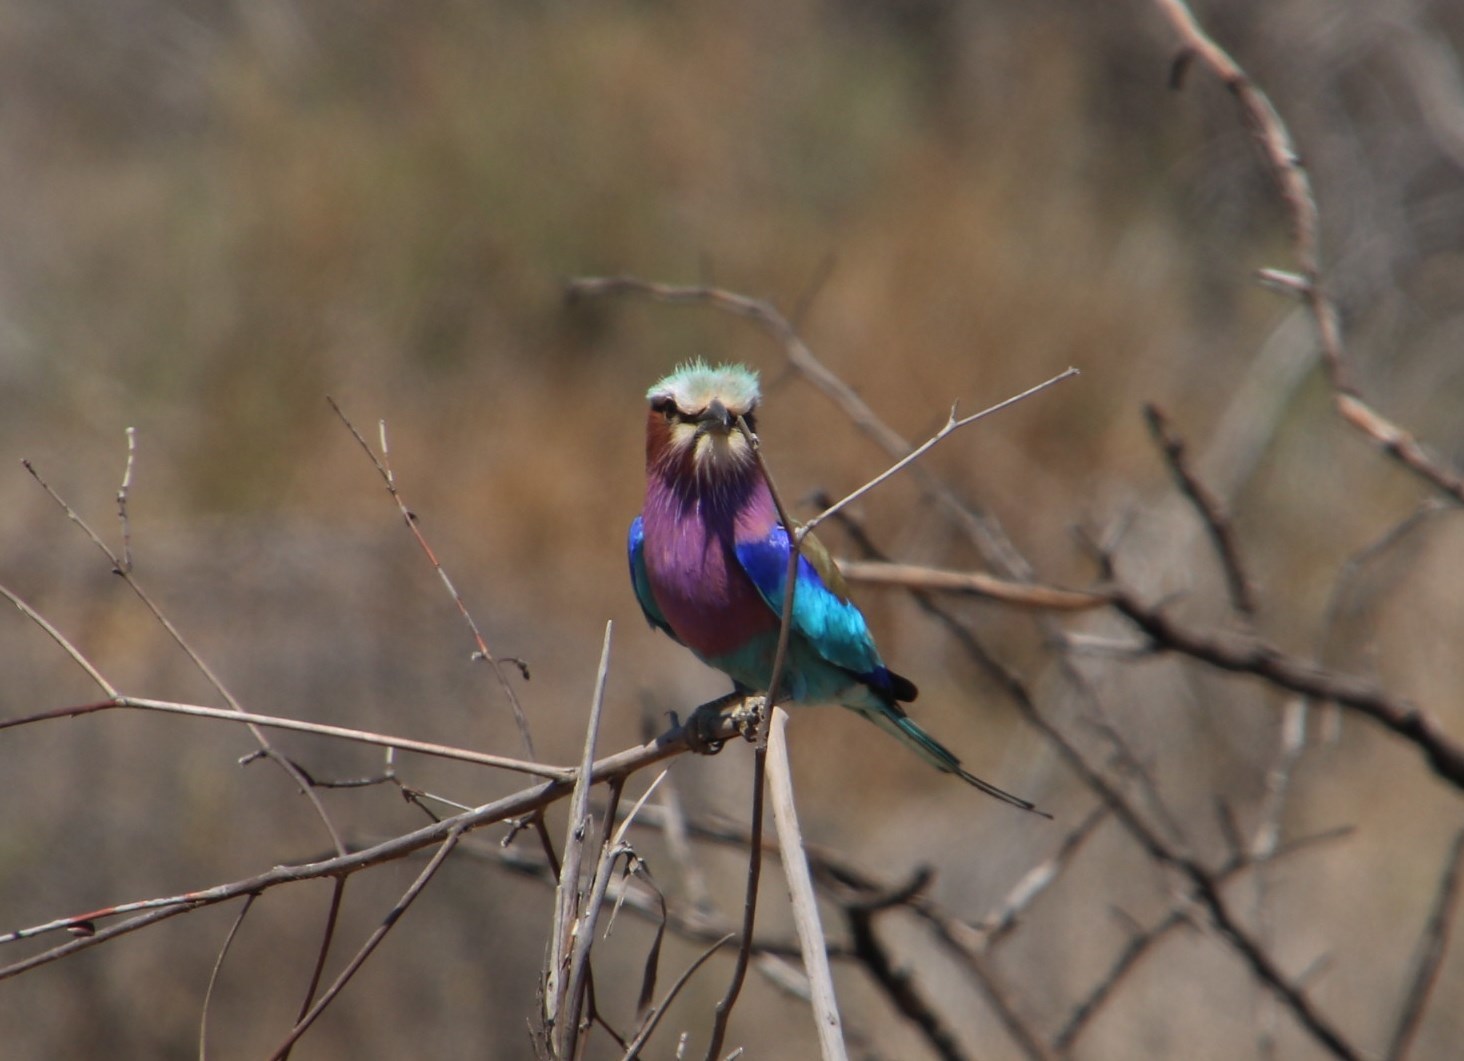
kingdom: Animalia
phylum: Chordata
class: Aves
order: Coraciiformes
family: Coraciidae
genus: Coracias
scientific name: Coracias caudatus
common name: Lilac-breasted roller
